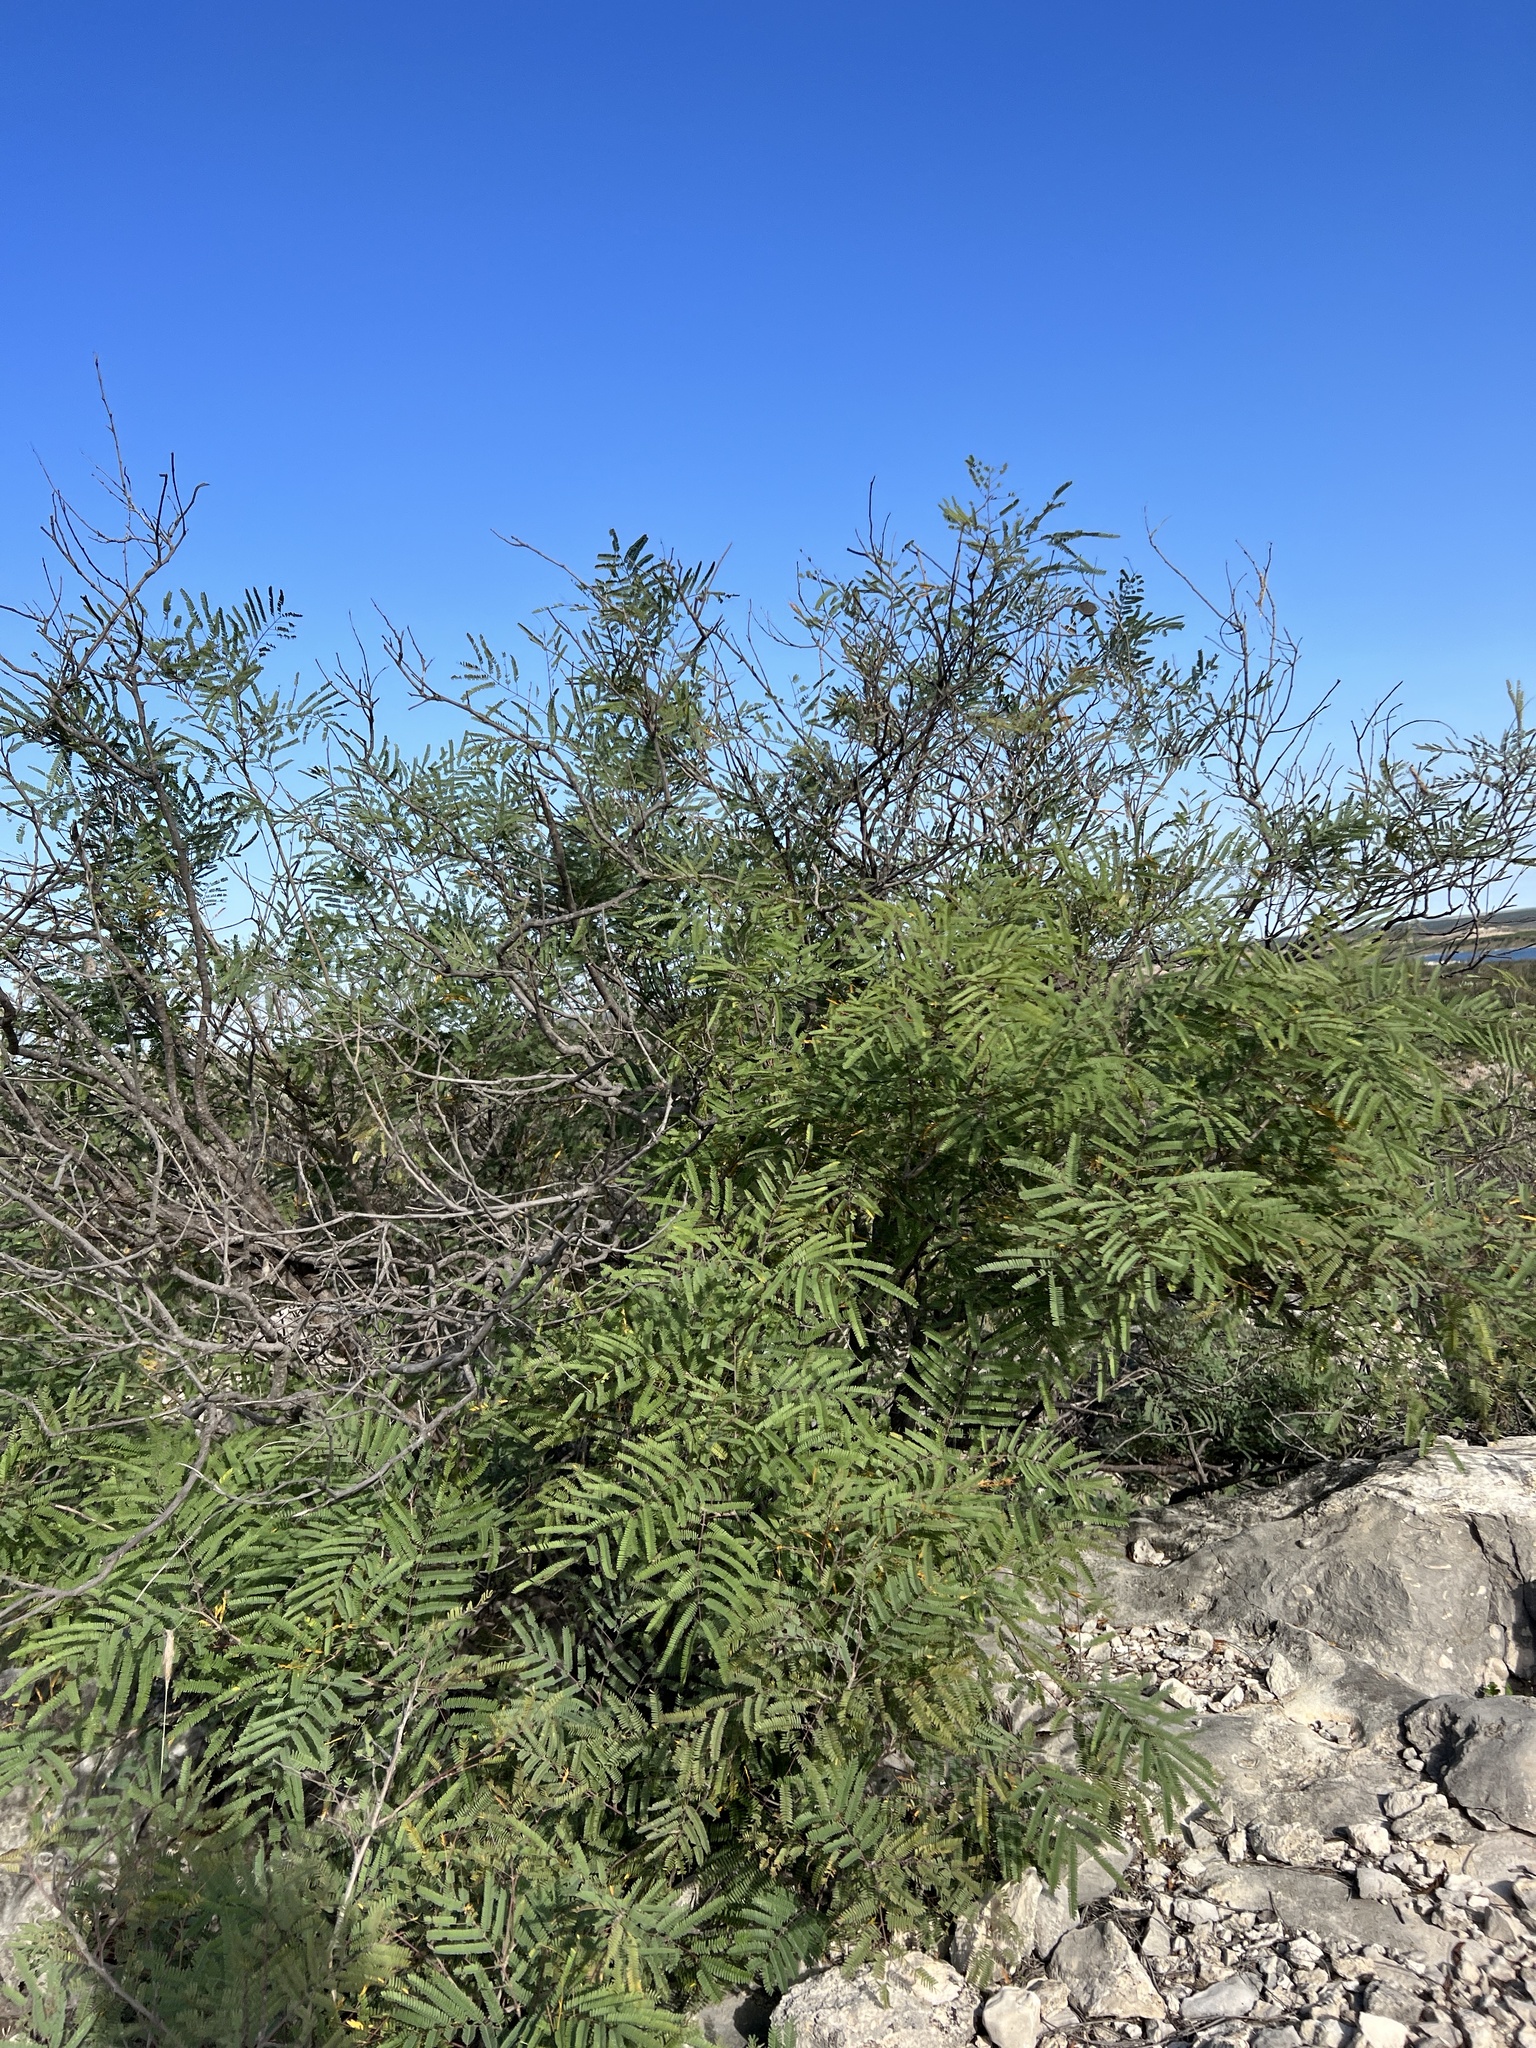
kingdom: Plantae
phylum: Tracheophyta
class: Magnoliopsida
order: Fabales
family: Fabaceae
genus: Senegalia
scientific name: Senegalia berlandieri
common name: Berlandier acacia
